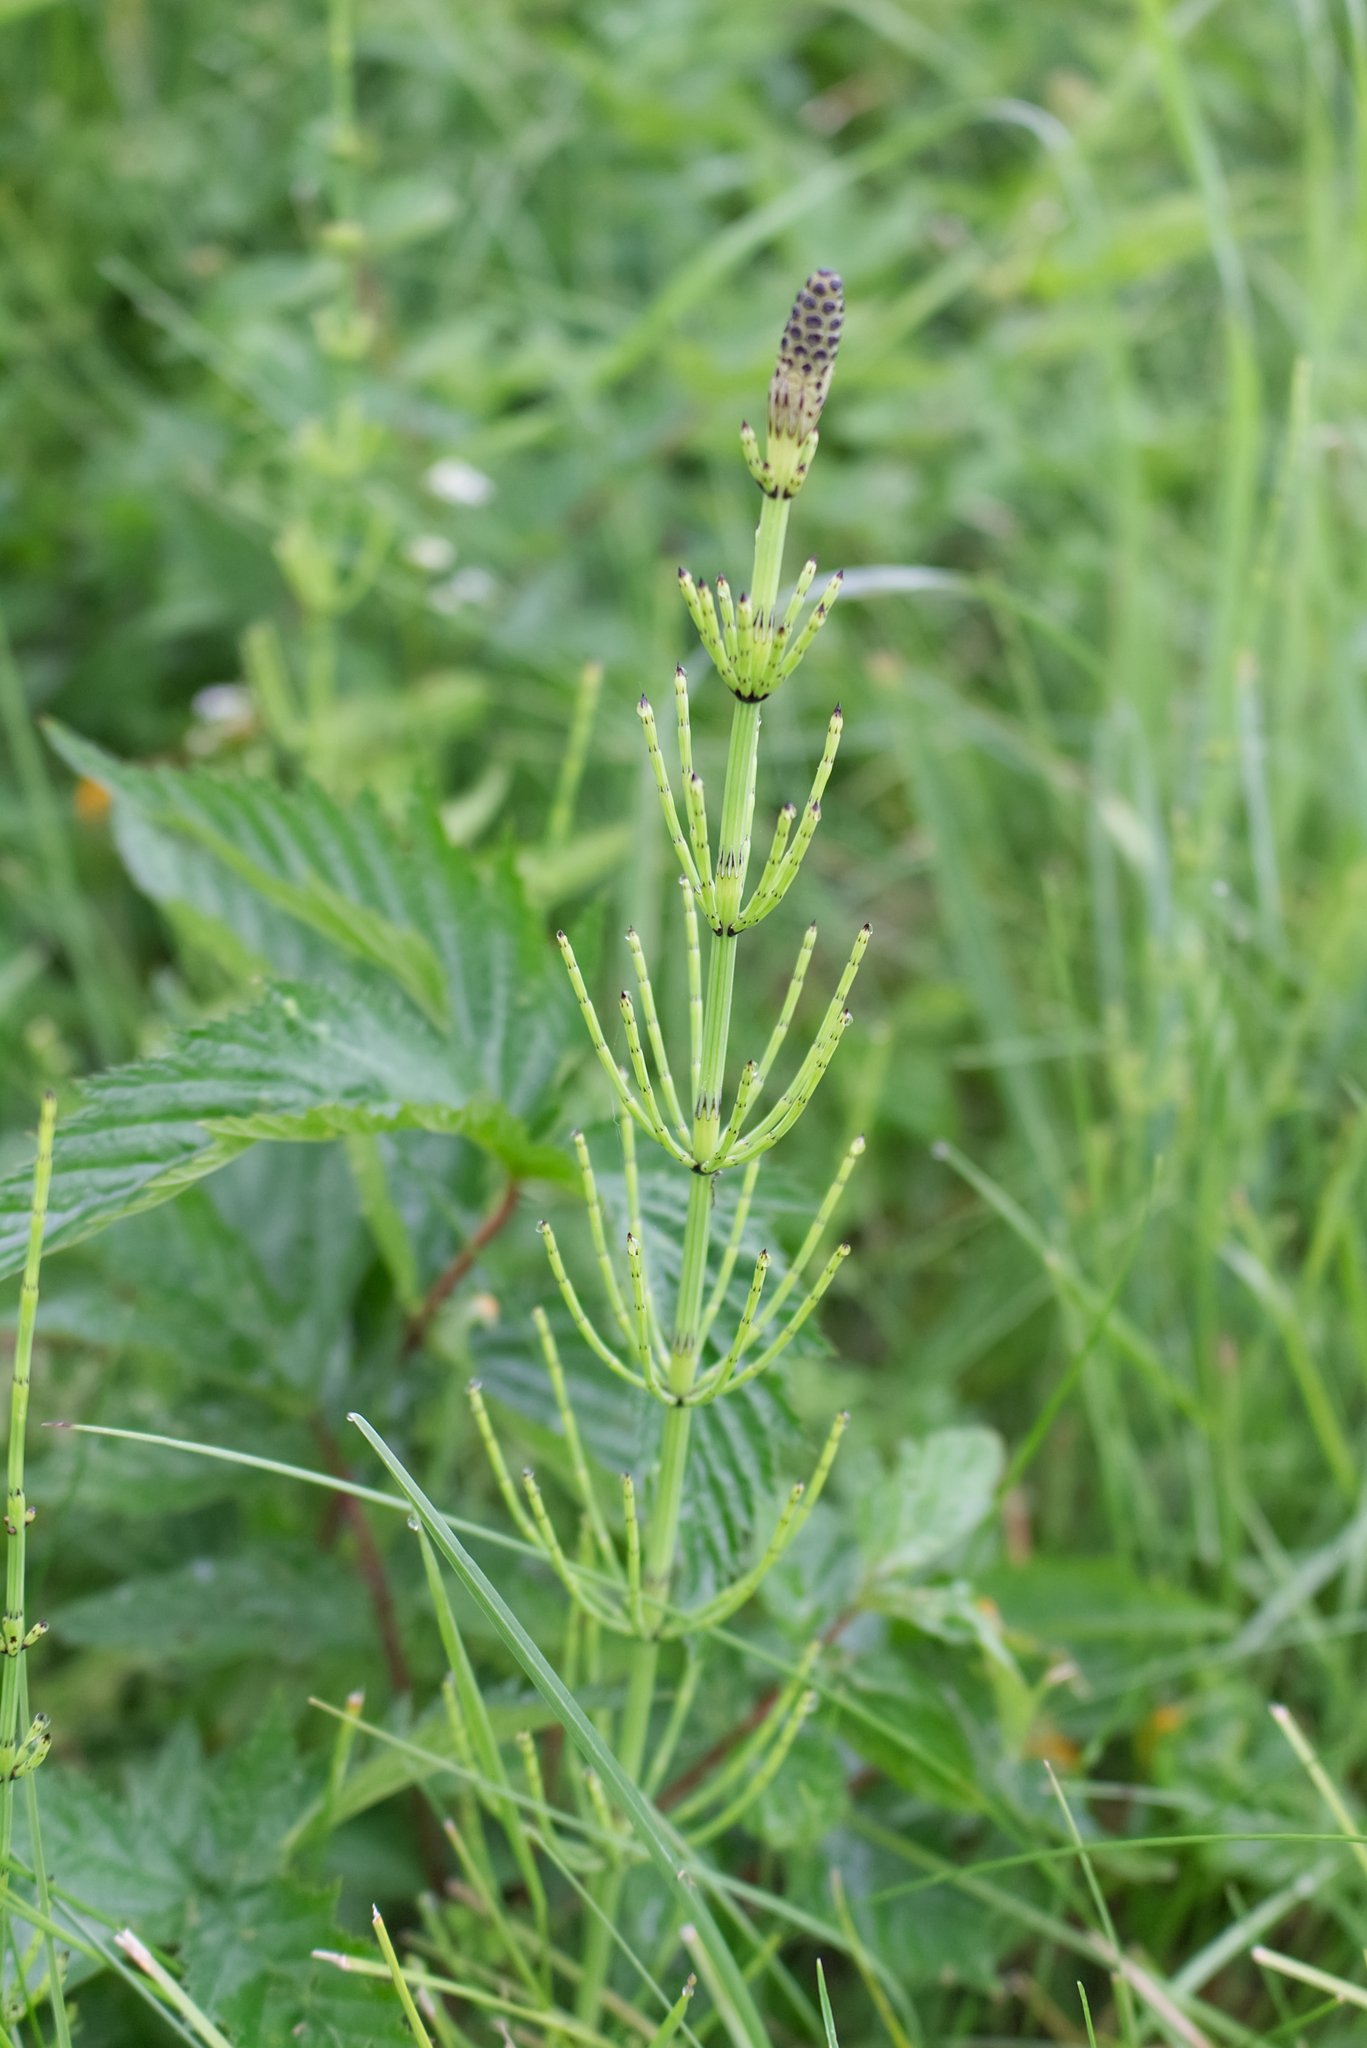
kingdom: Plantae
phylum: Tracheophyta
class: Polypodiopsida
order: Equisetales
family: Equisetaceae
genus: Equisetum
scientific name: Equisetum palustre
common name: Marsh horsetail
